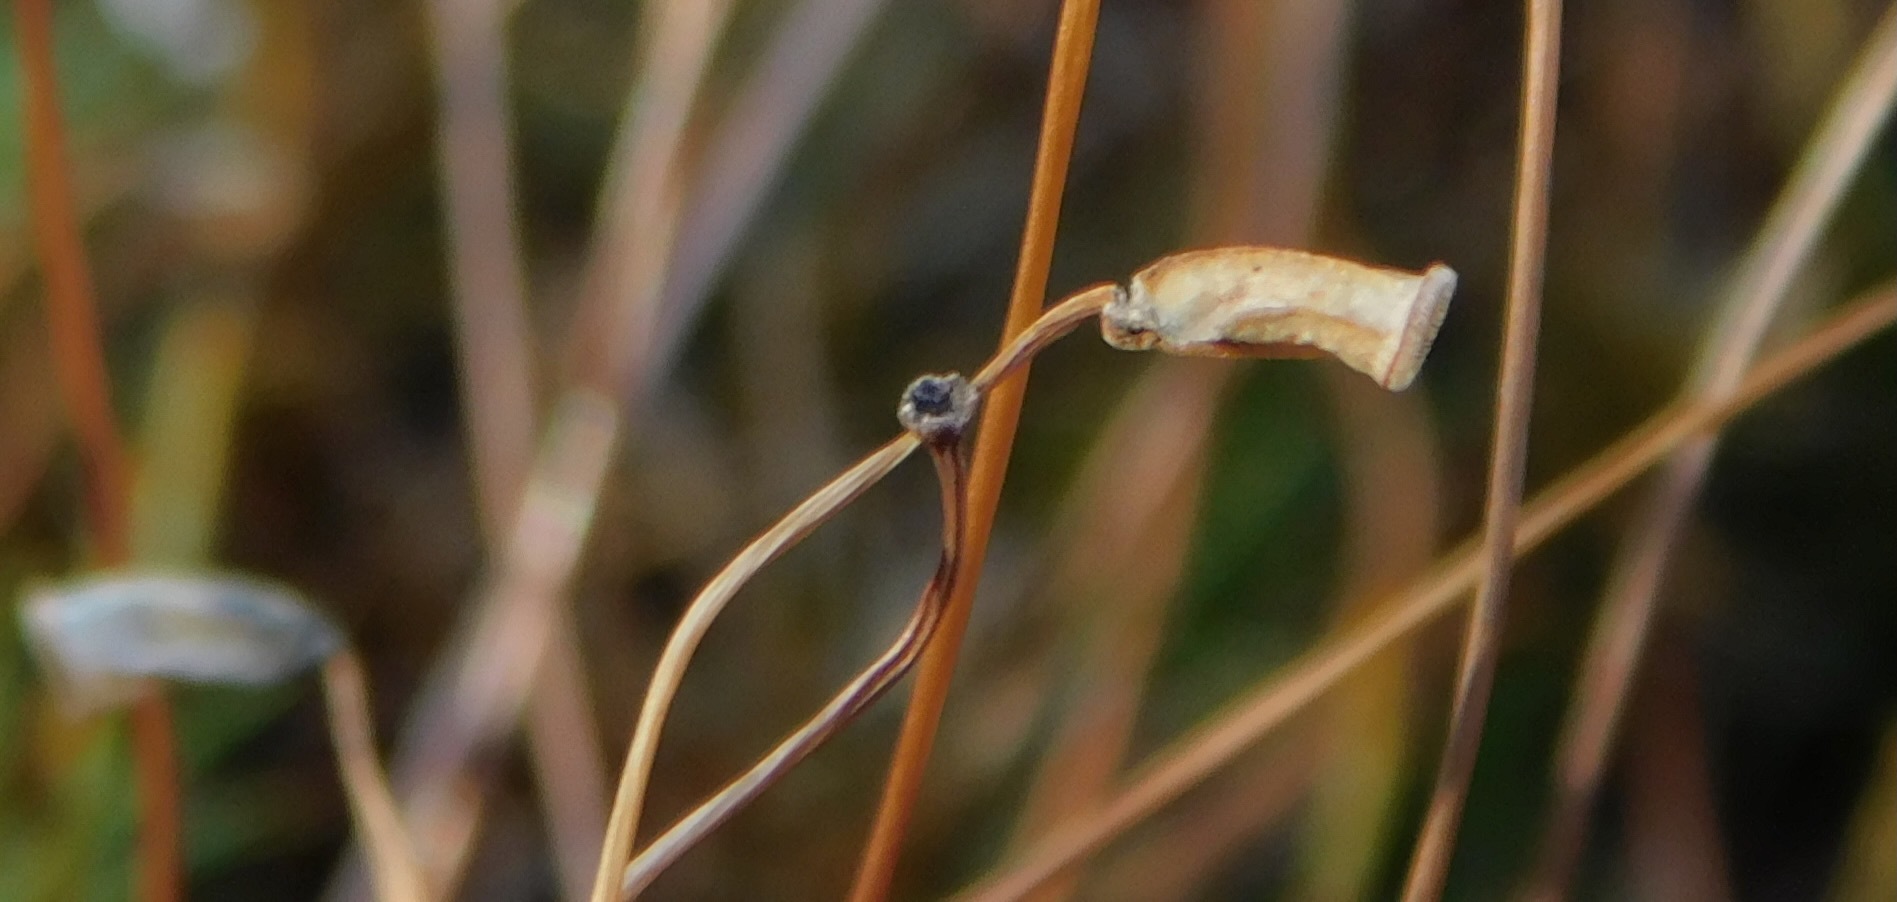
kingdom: Plantae
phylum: Bryophyta
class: Polytrichopsida
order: Polytrichales
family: Polytrichaceae
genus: Polytrichum
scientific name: Polytrichum commune
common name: Common haircap
